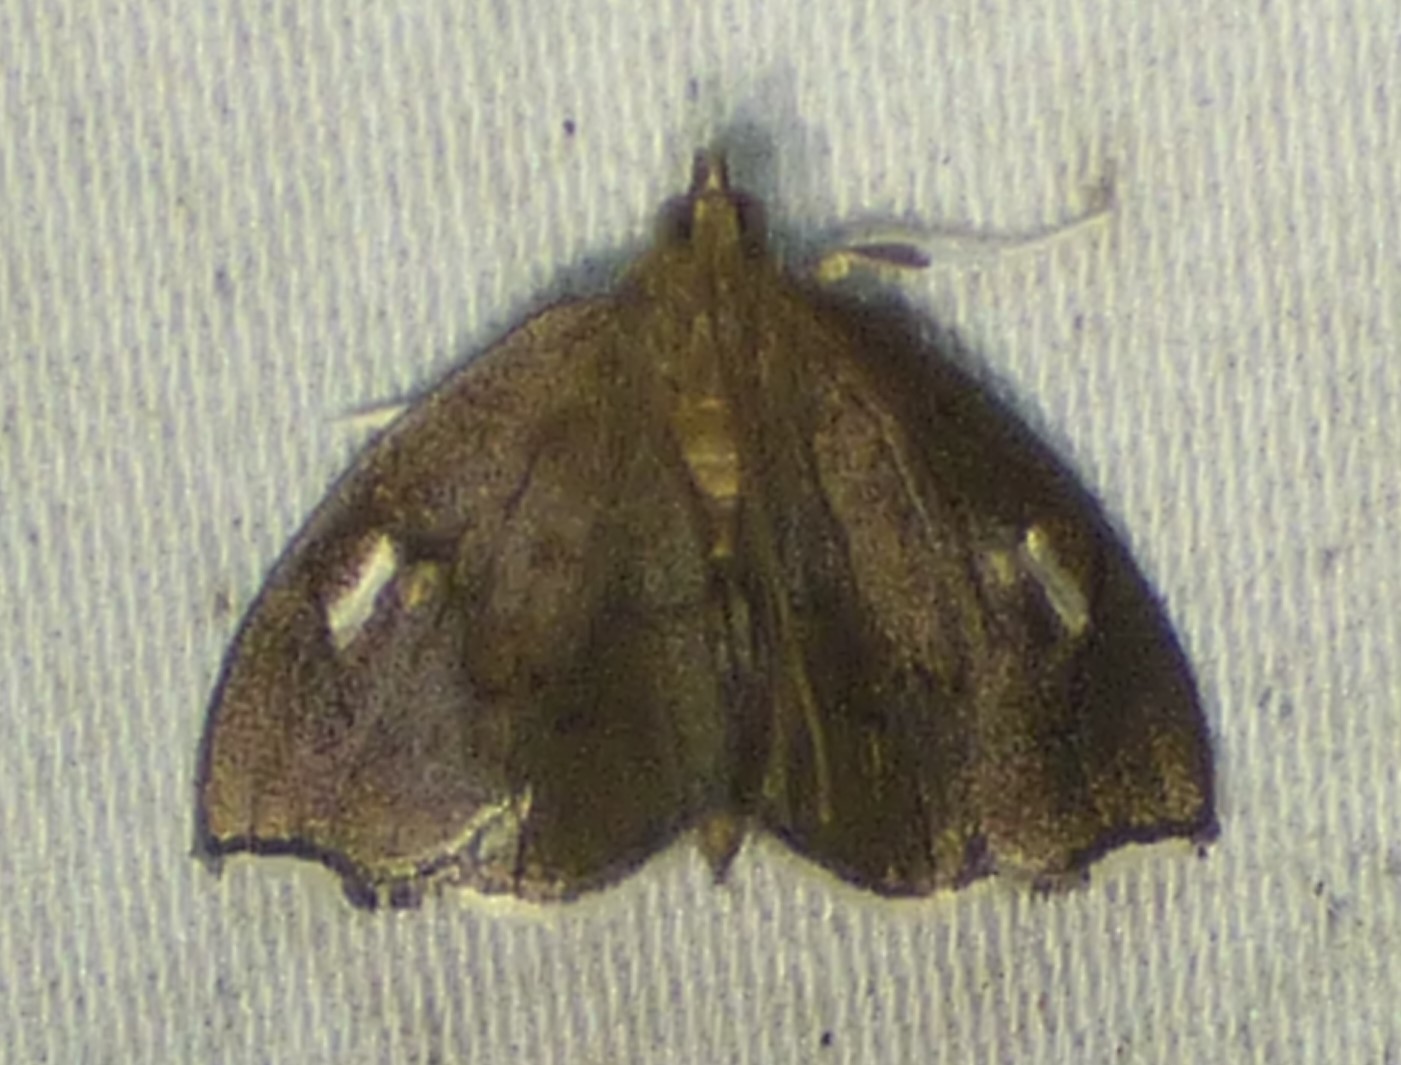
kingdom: Animalia
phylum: Arthropoda
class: Insecta
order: Lepidoptera
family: Crambidae
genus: Perispasta
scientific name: Perispasta caeculalis
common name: Titian peale's moth
